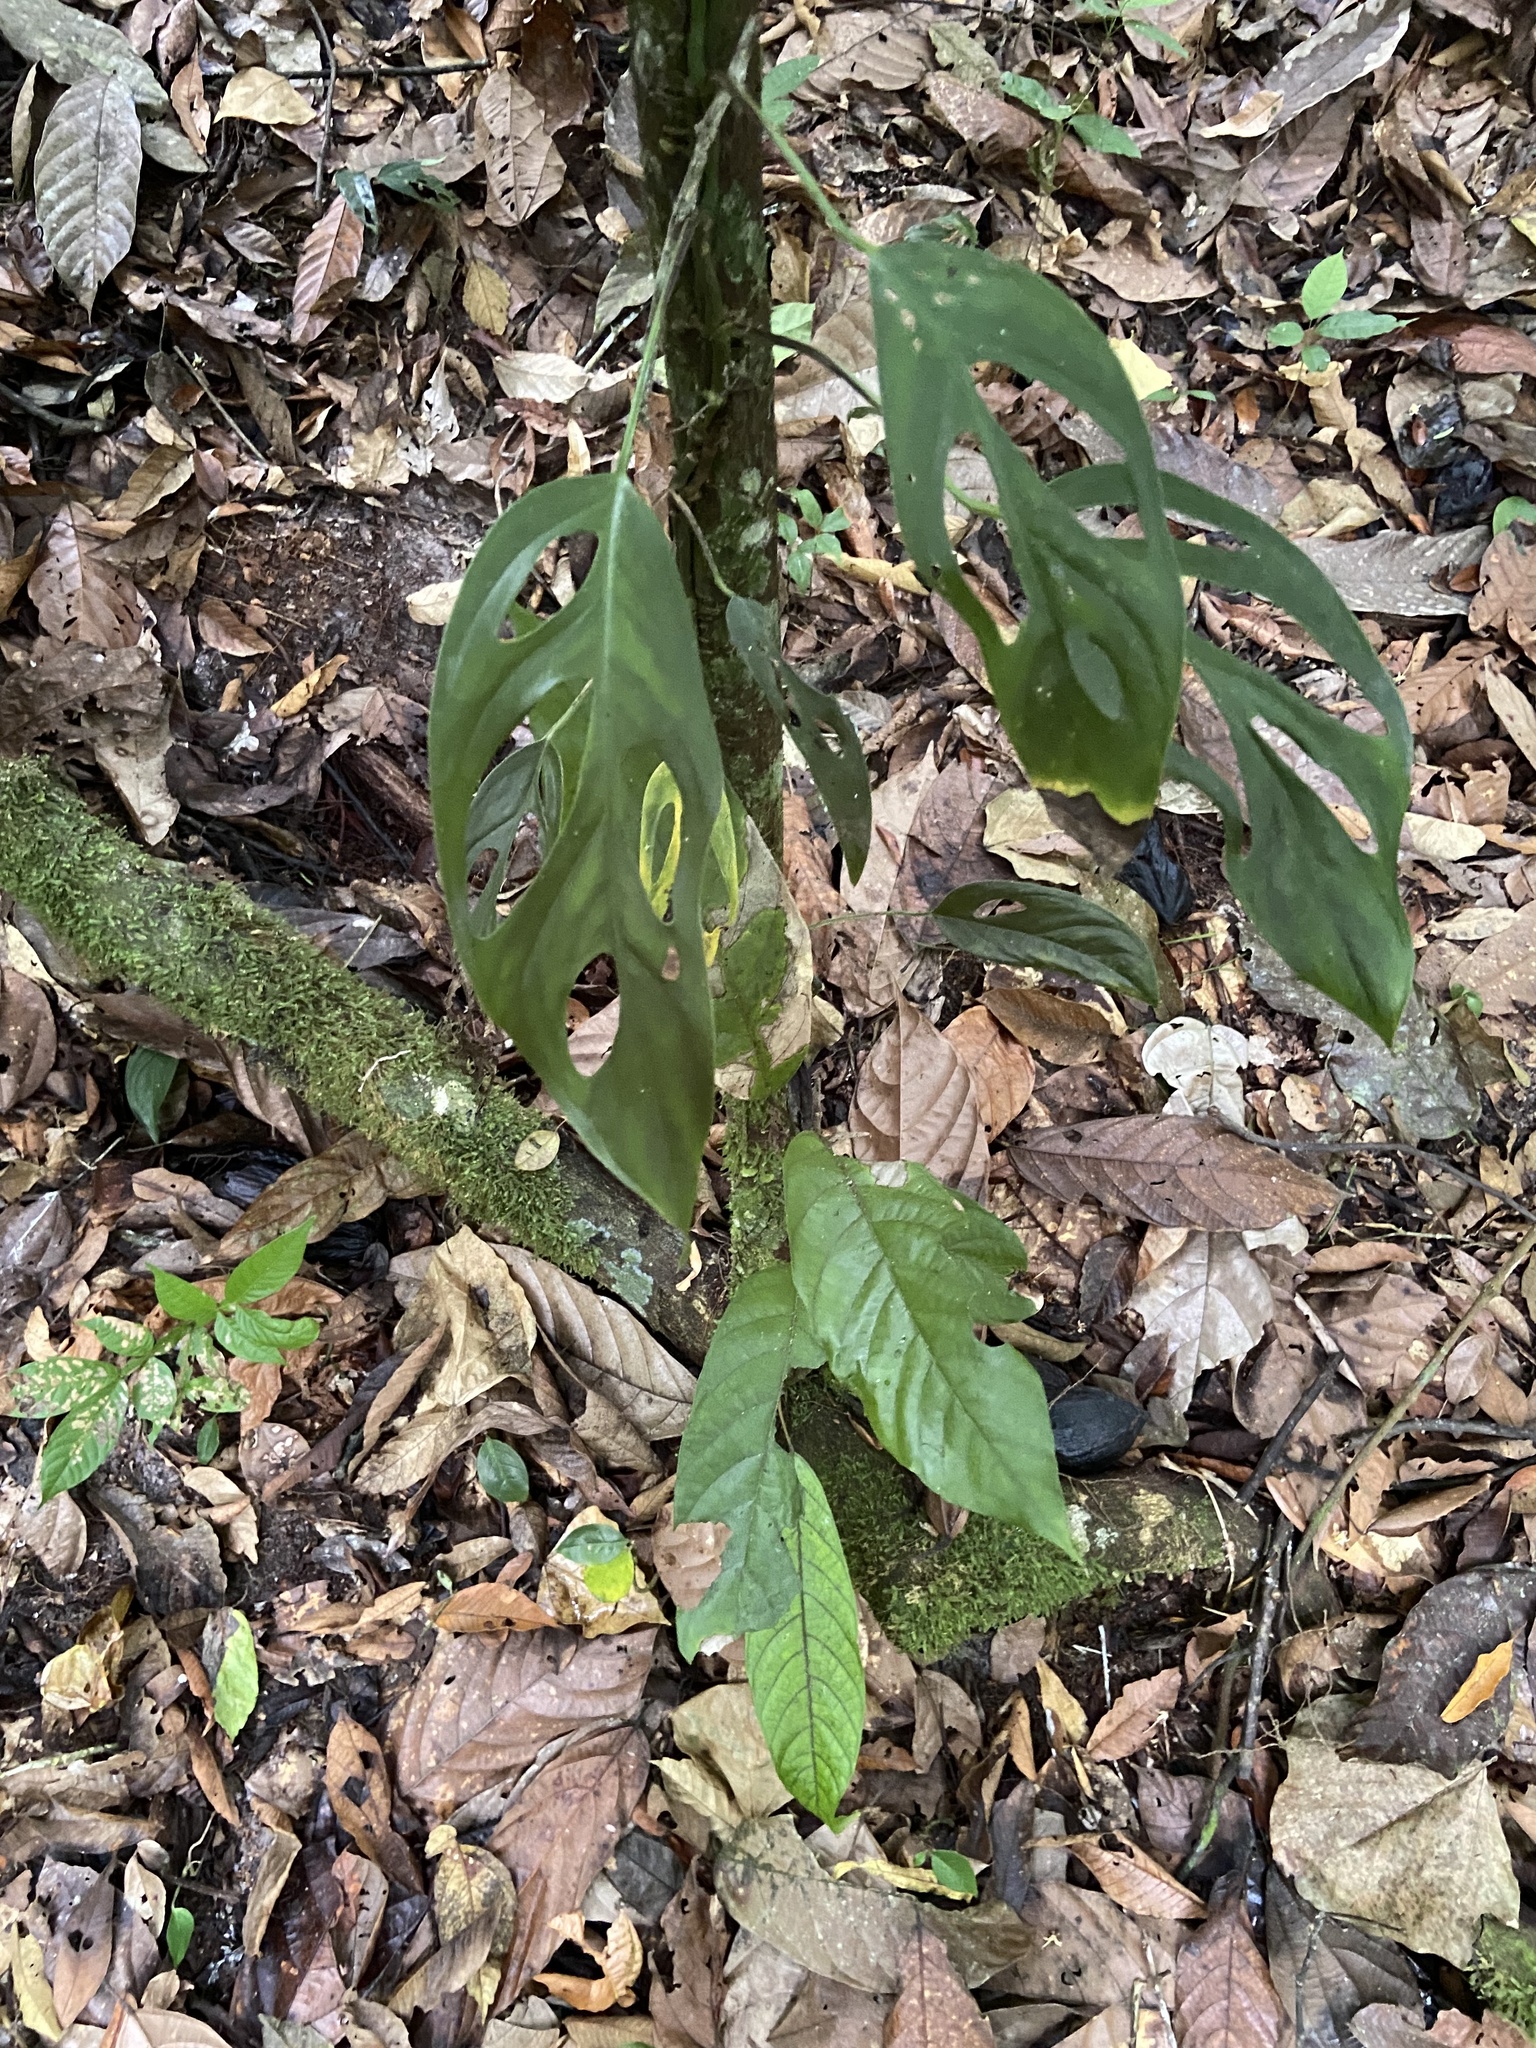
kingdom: Plantae
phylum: Tracheophyta
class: Liliopsida
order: Alismatales
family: Araceae
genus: Monstera
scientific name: Monstera praetermissa
